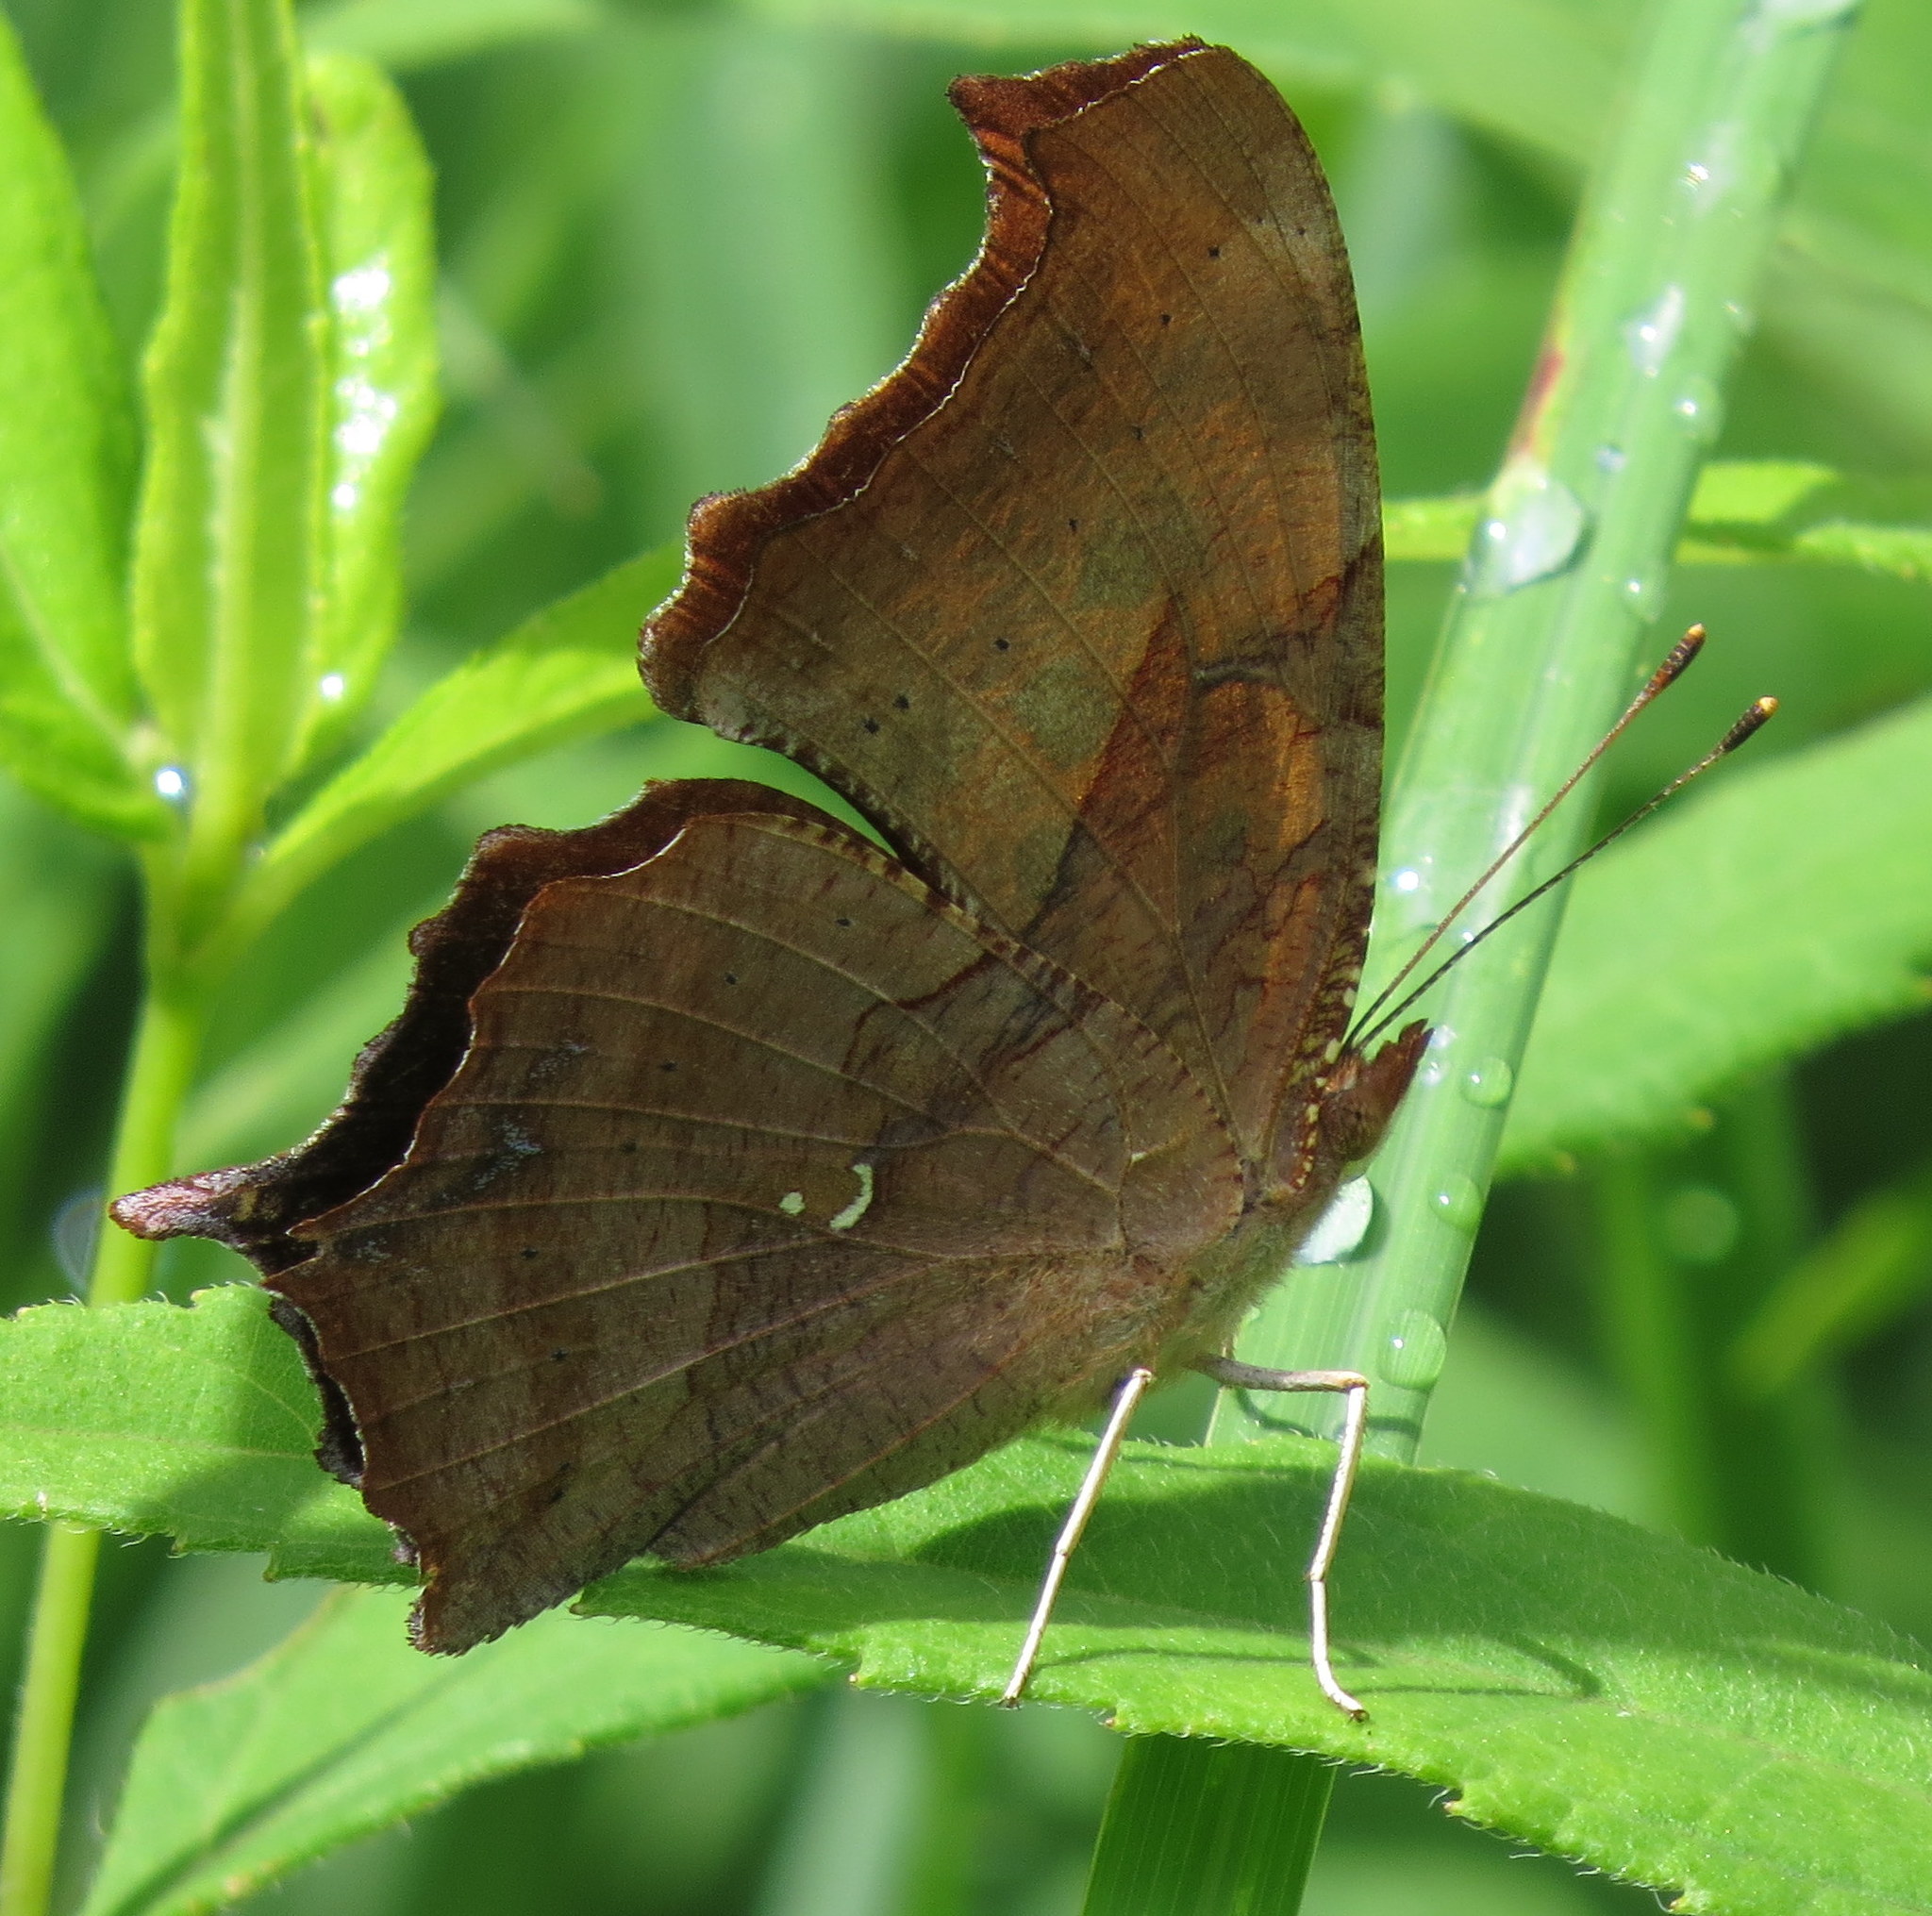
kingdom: Animalia
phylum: Arthropoda
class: Insecta
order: Lepidoptera
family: Nymphalidae
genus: Polygonia
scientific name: Polygonia interrogationis
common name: Question mark
